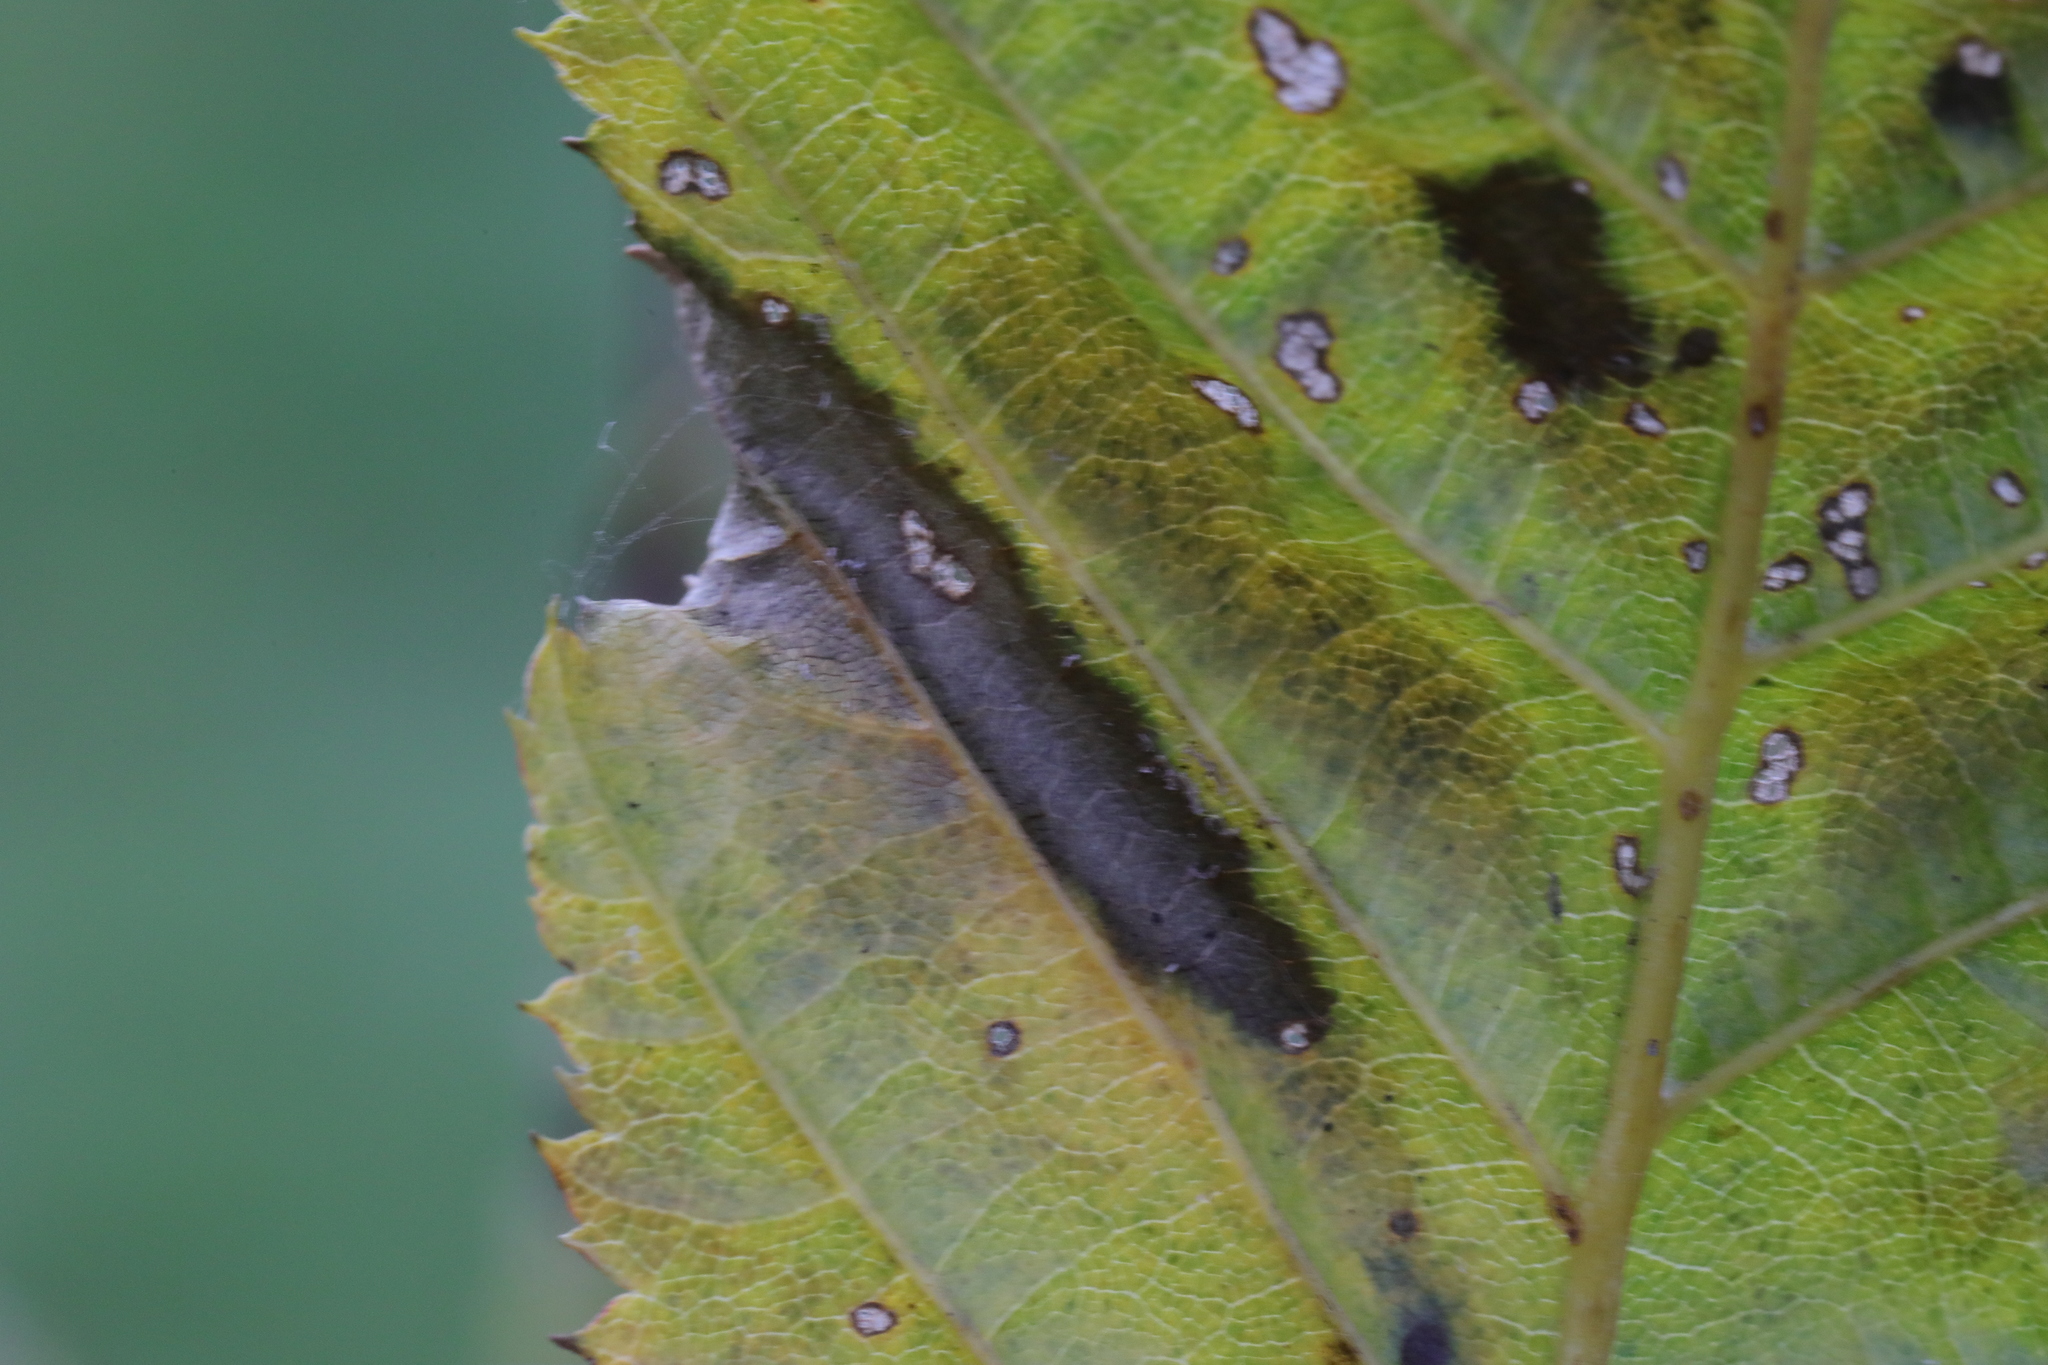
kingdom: Animalia
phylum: Arthropoda
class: Insecta
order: Lepidoptera
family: Gracillariidae
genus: Phyllonorycter
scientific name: Phyllonorycter tenerella
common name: Hornbeam midget
